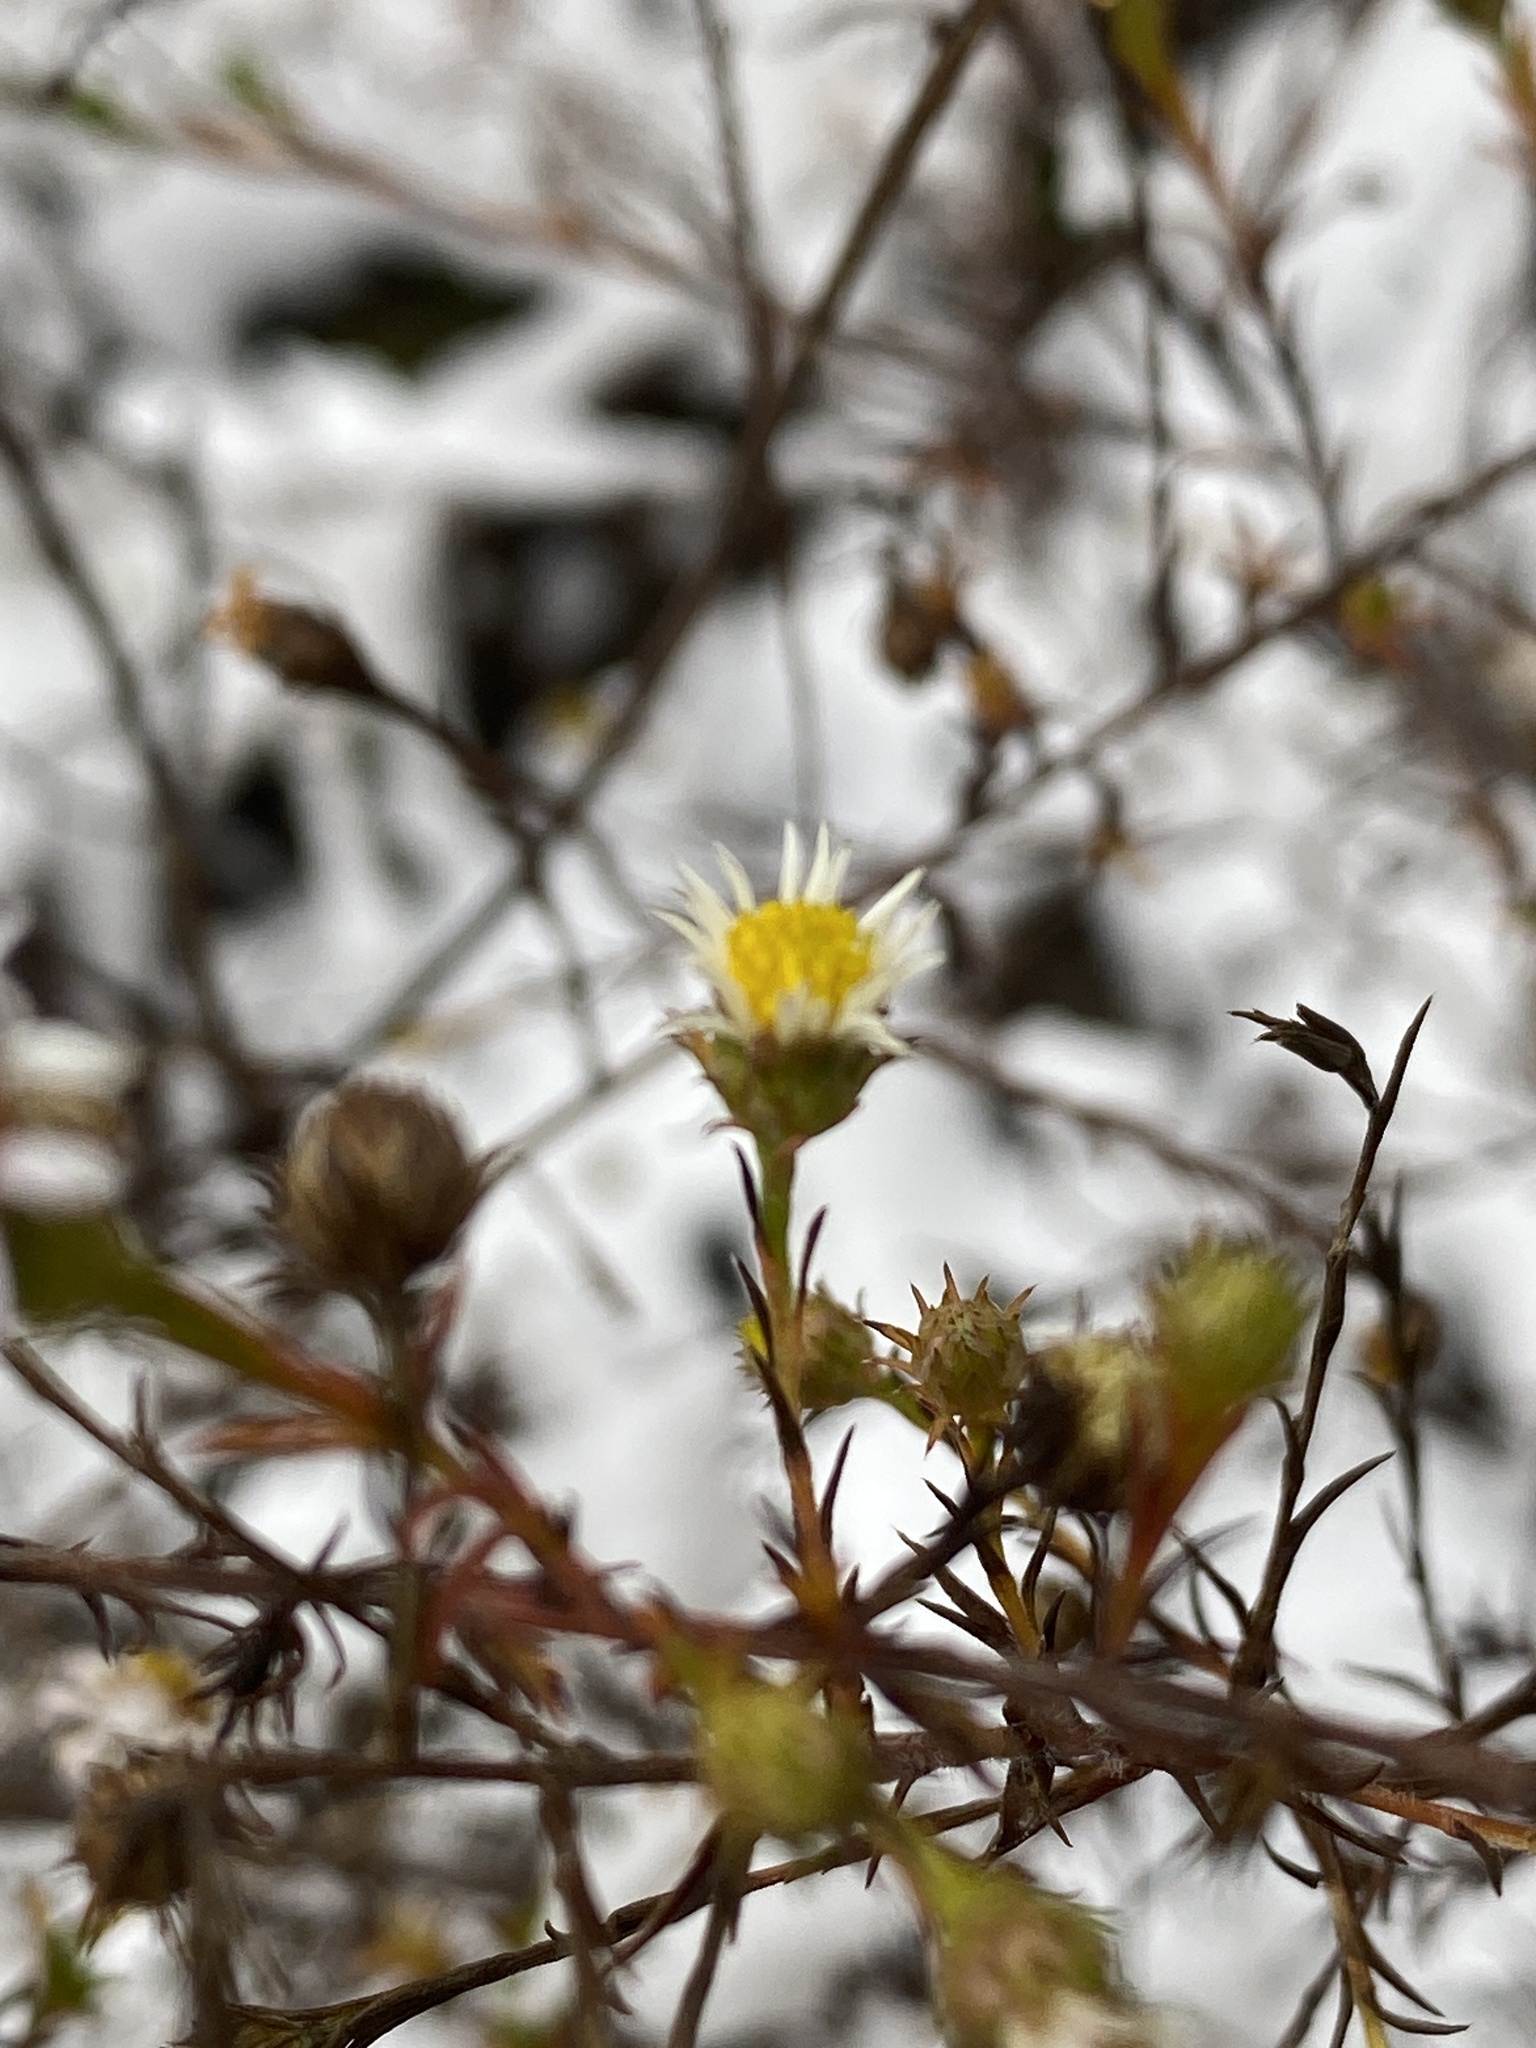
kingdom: Plantae
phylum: Tracheophyta
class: Magnoliopsida
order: Asterales
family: Asteraceae
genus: Symphyotrichum
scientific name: Symphyotrichum pilosum
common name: Awl aster
